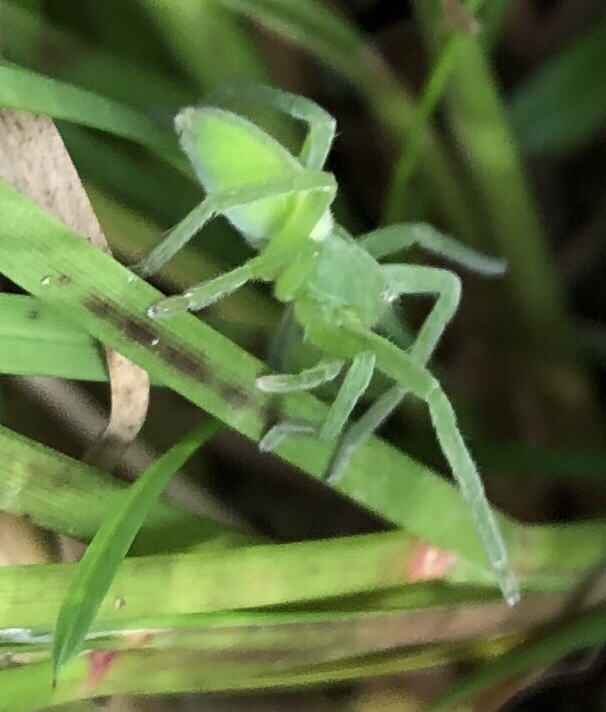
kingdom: Animalia
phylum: Arthropoda
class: Arachnida
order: Araneae
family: Sparassidae
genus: Micrommata
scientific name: Micrommata virescens
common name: Green spider
